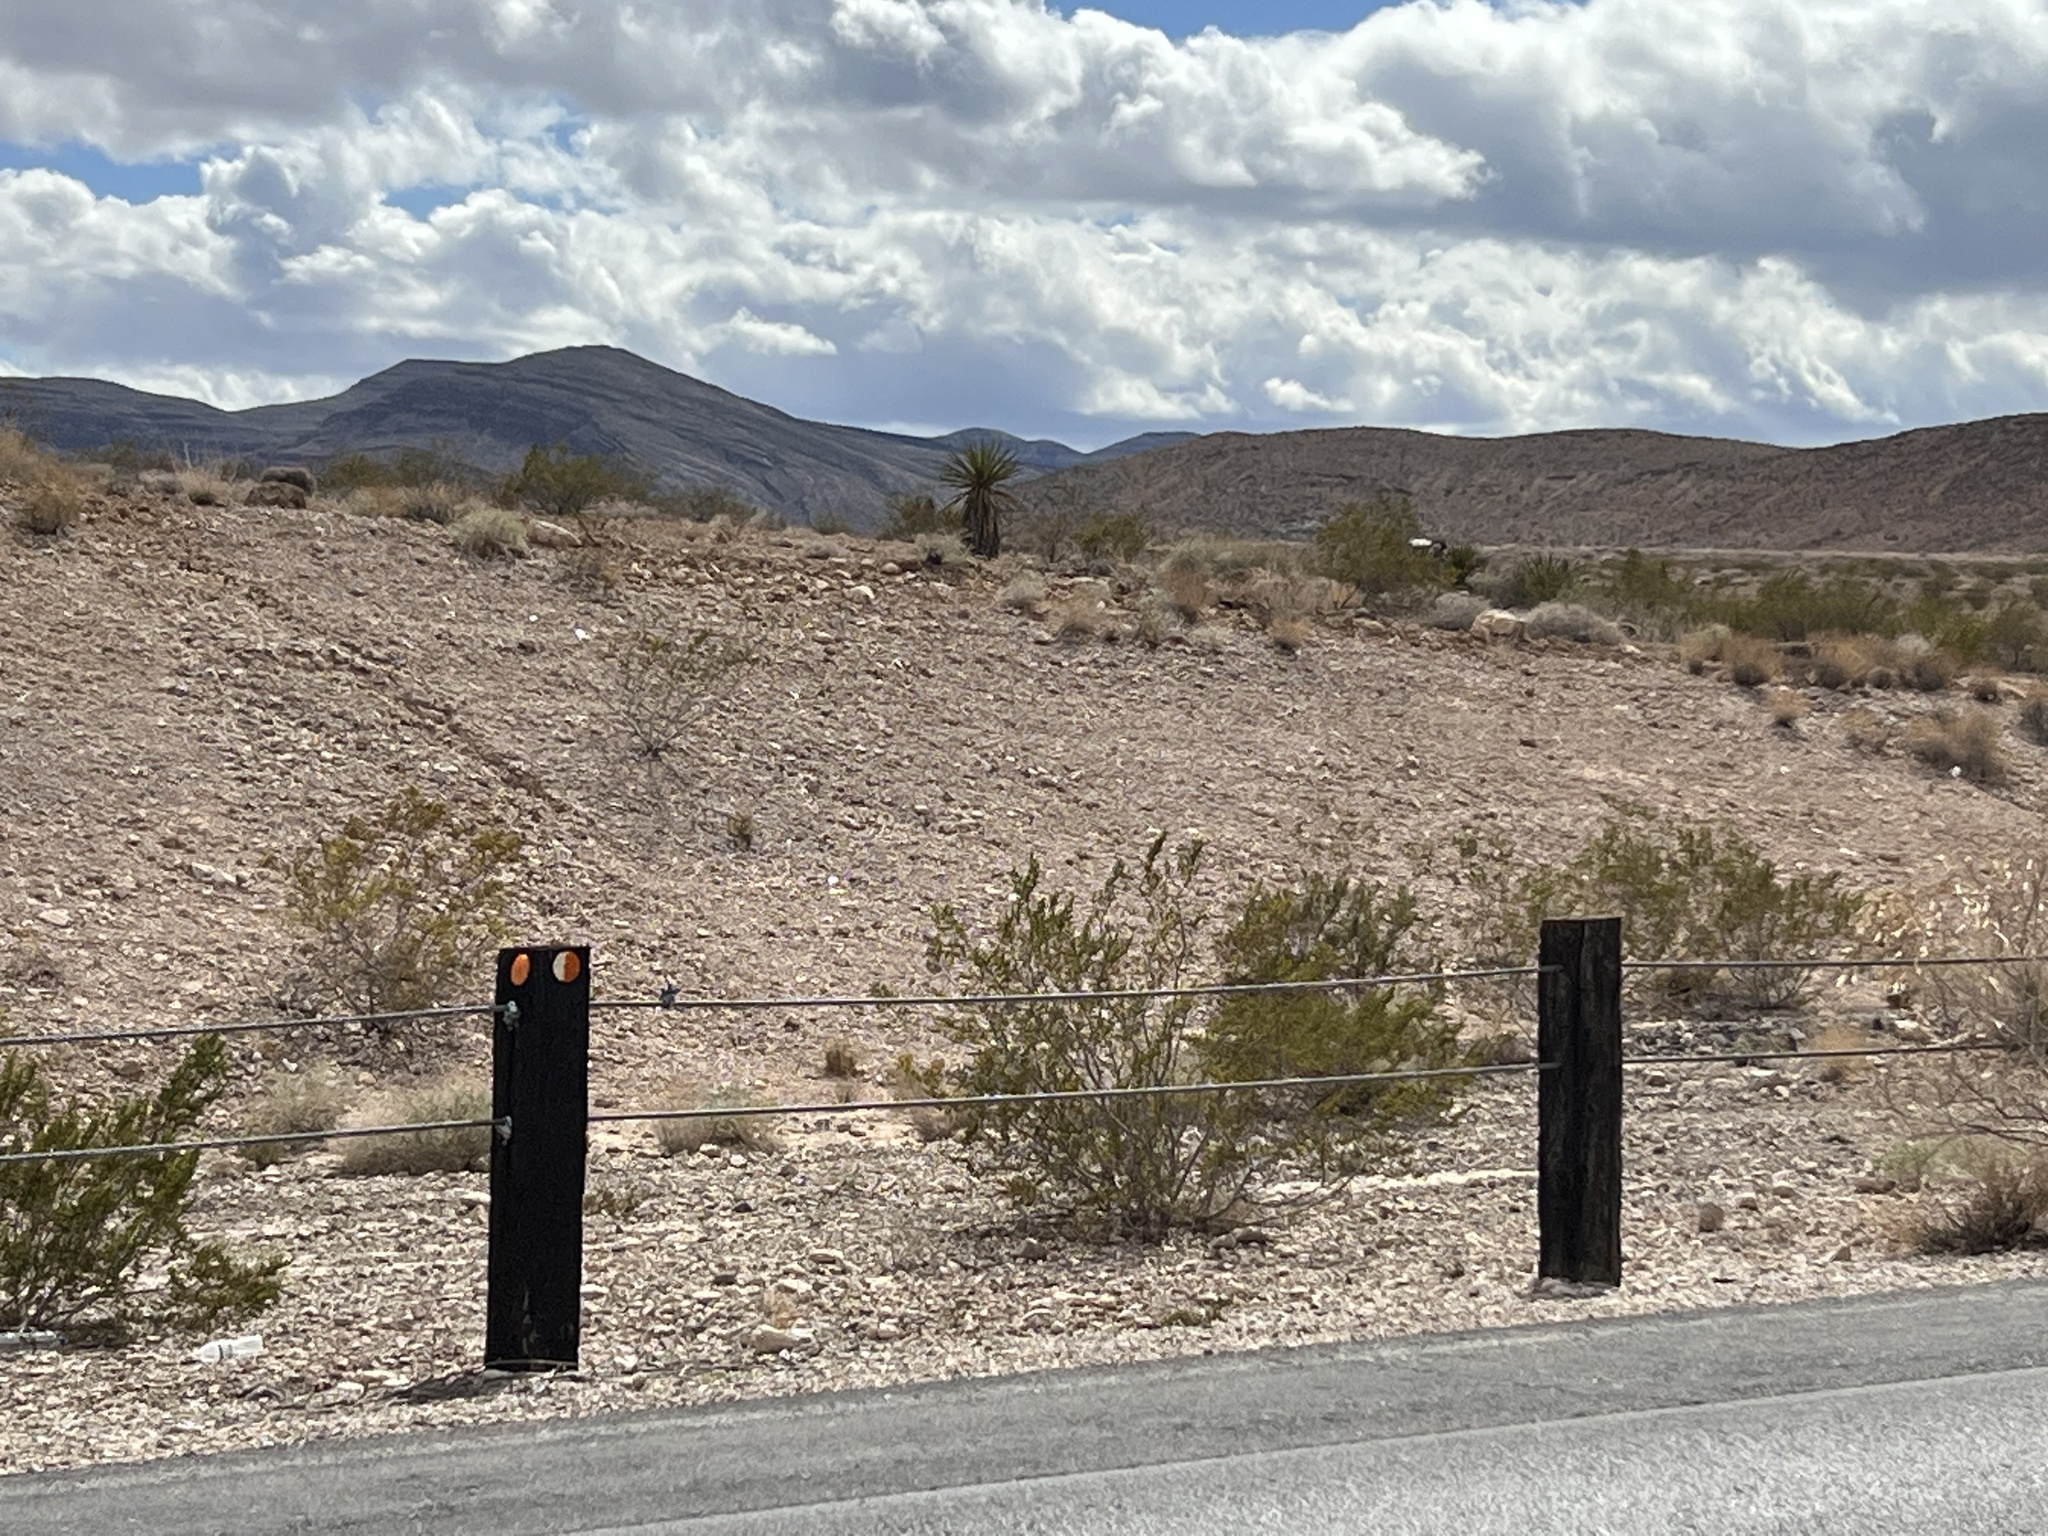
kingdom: Plantae
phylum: Tracheophyta
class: Magnoliopsida
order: Zygophyllales
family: Zygophyllaceae
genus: Larrea
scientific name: Larrea tridentata
